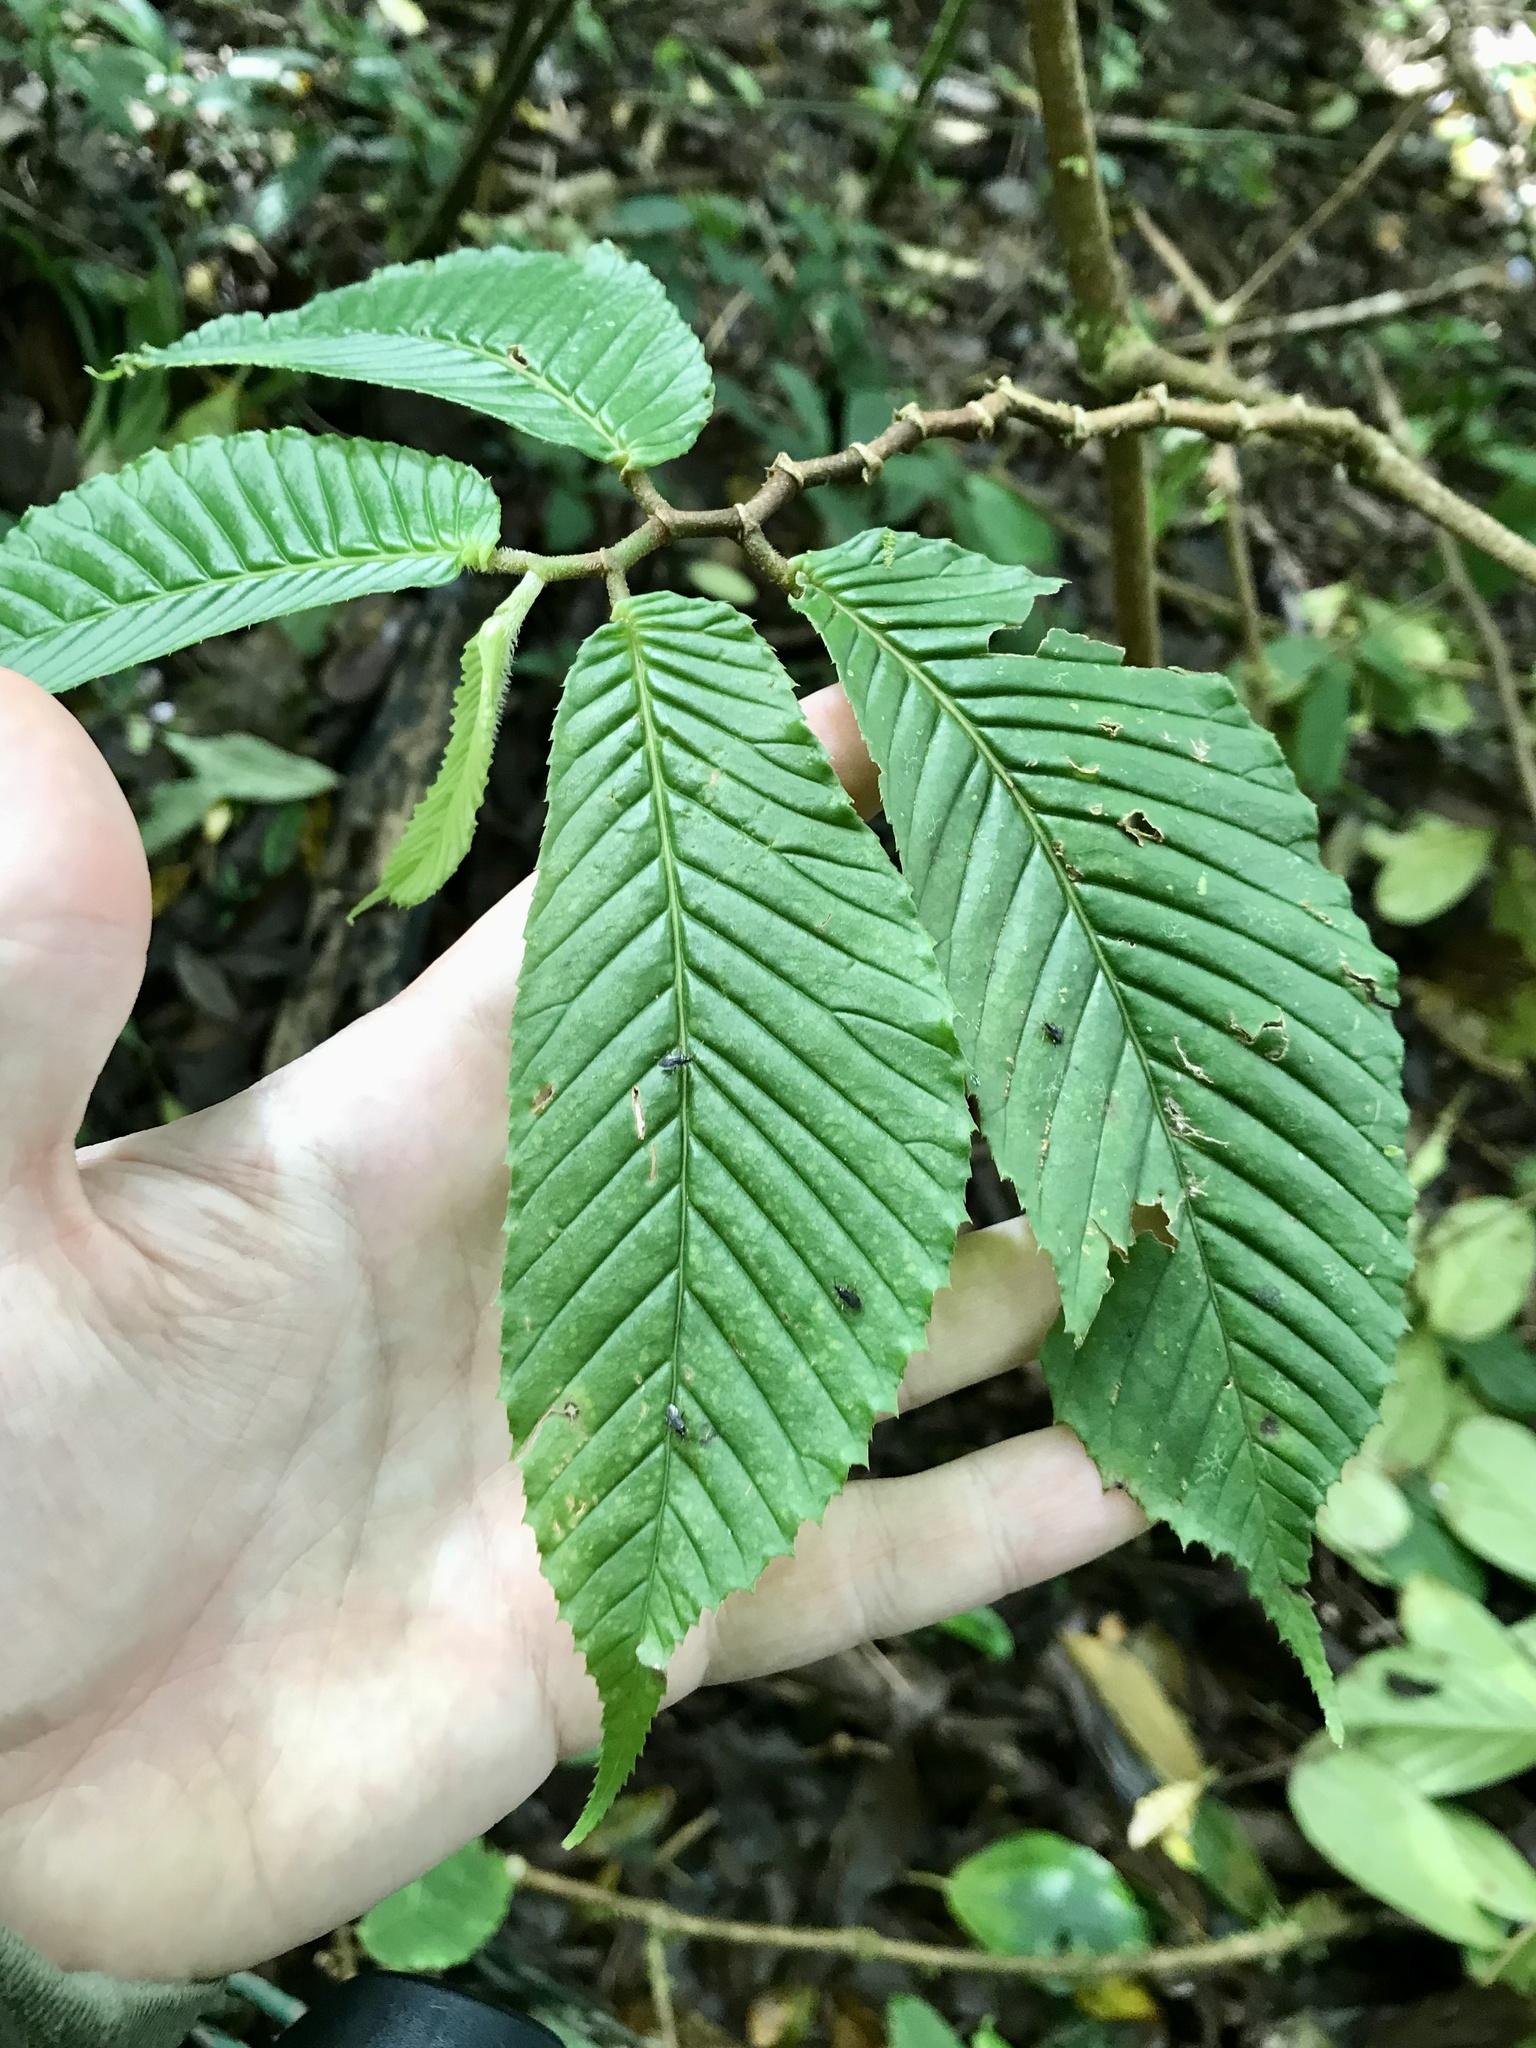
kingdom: Plantae
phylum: Tracheophyta
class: Magnoliopsida
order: Cucurbitales
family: Begoniaceae
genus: Begonia
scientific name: Begonia cooperi
